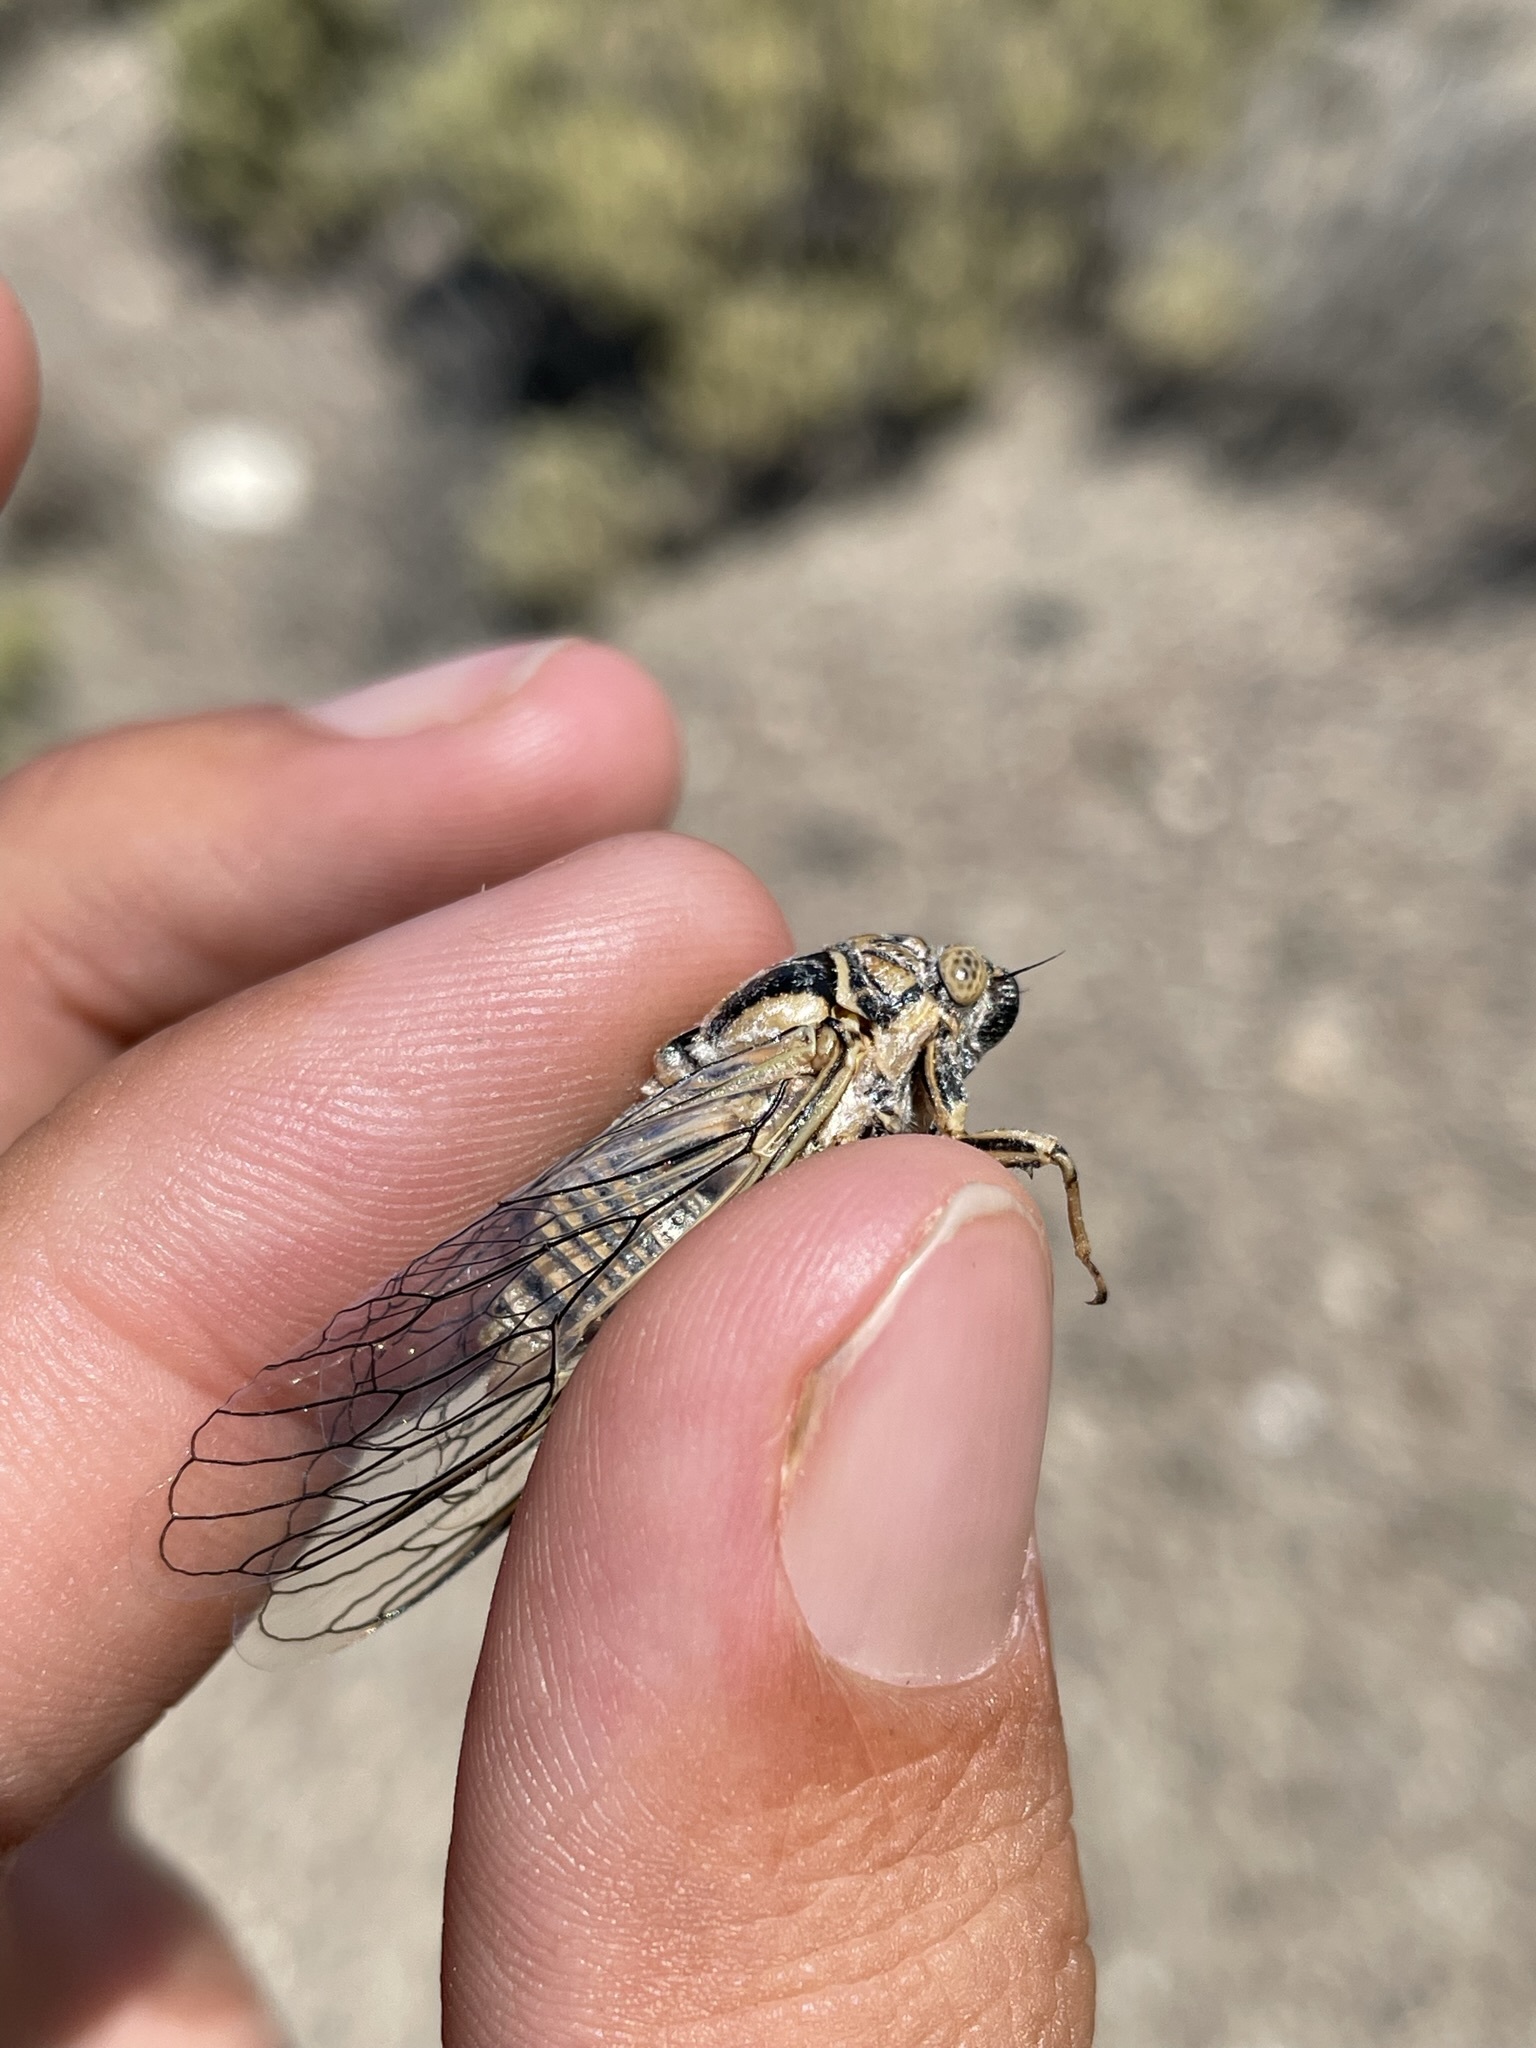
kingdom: Animalia
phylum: Arthropoda
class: Insecta
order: Hemiptera
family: Cicadidae
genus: Clidophleps
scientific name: Clidophleps vagans
